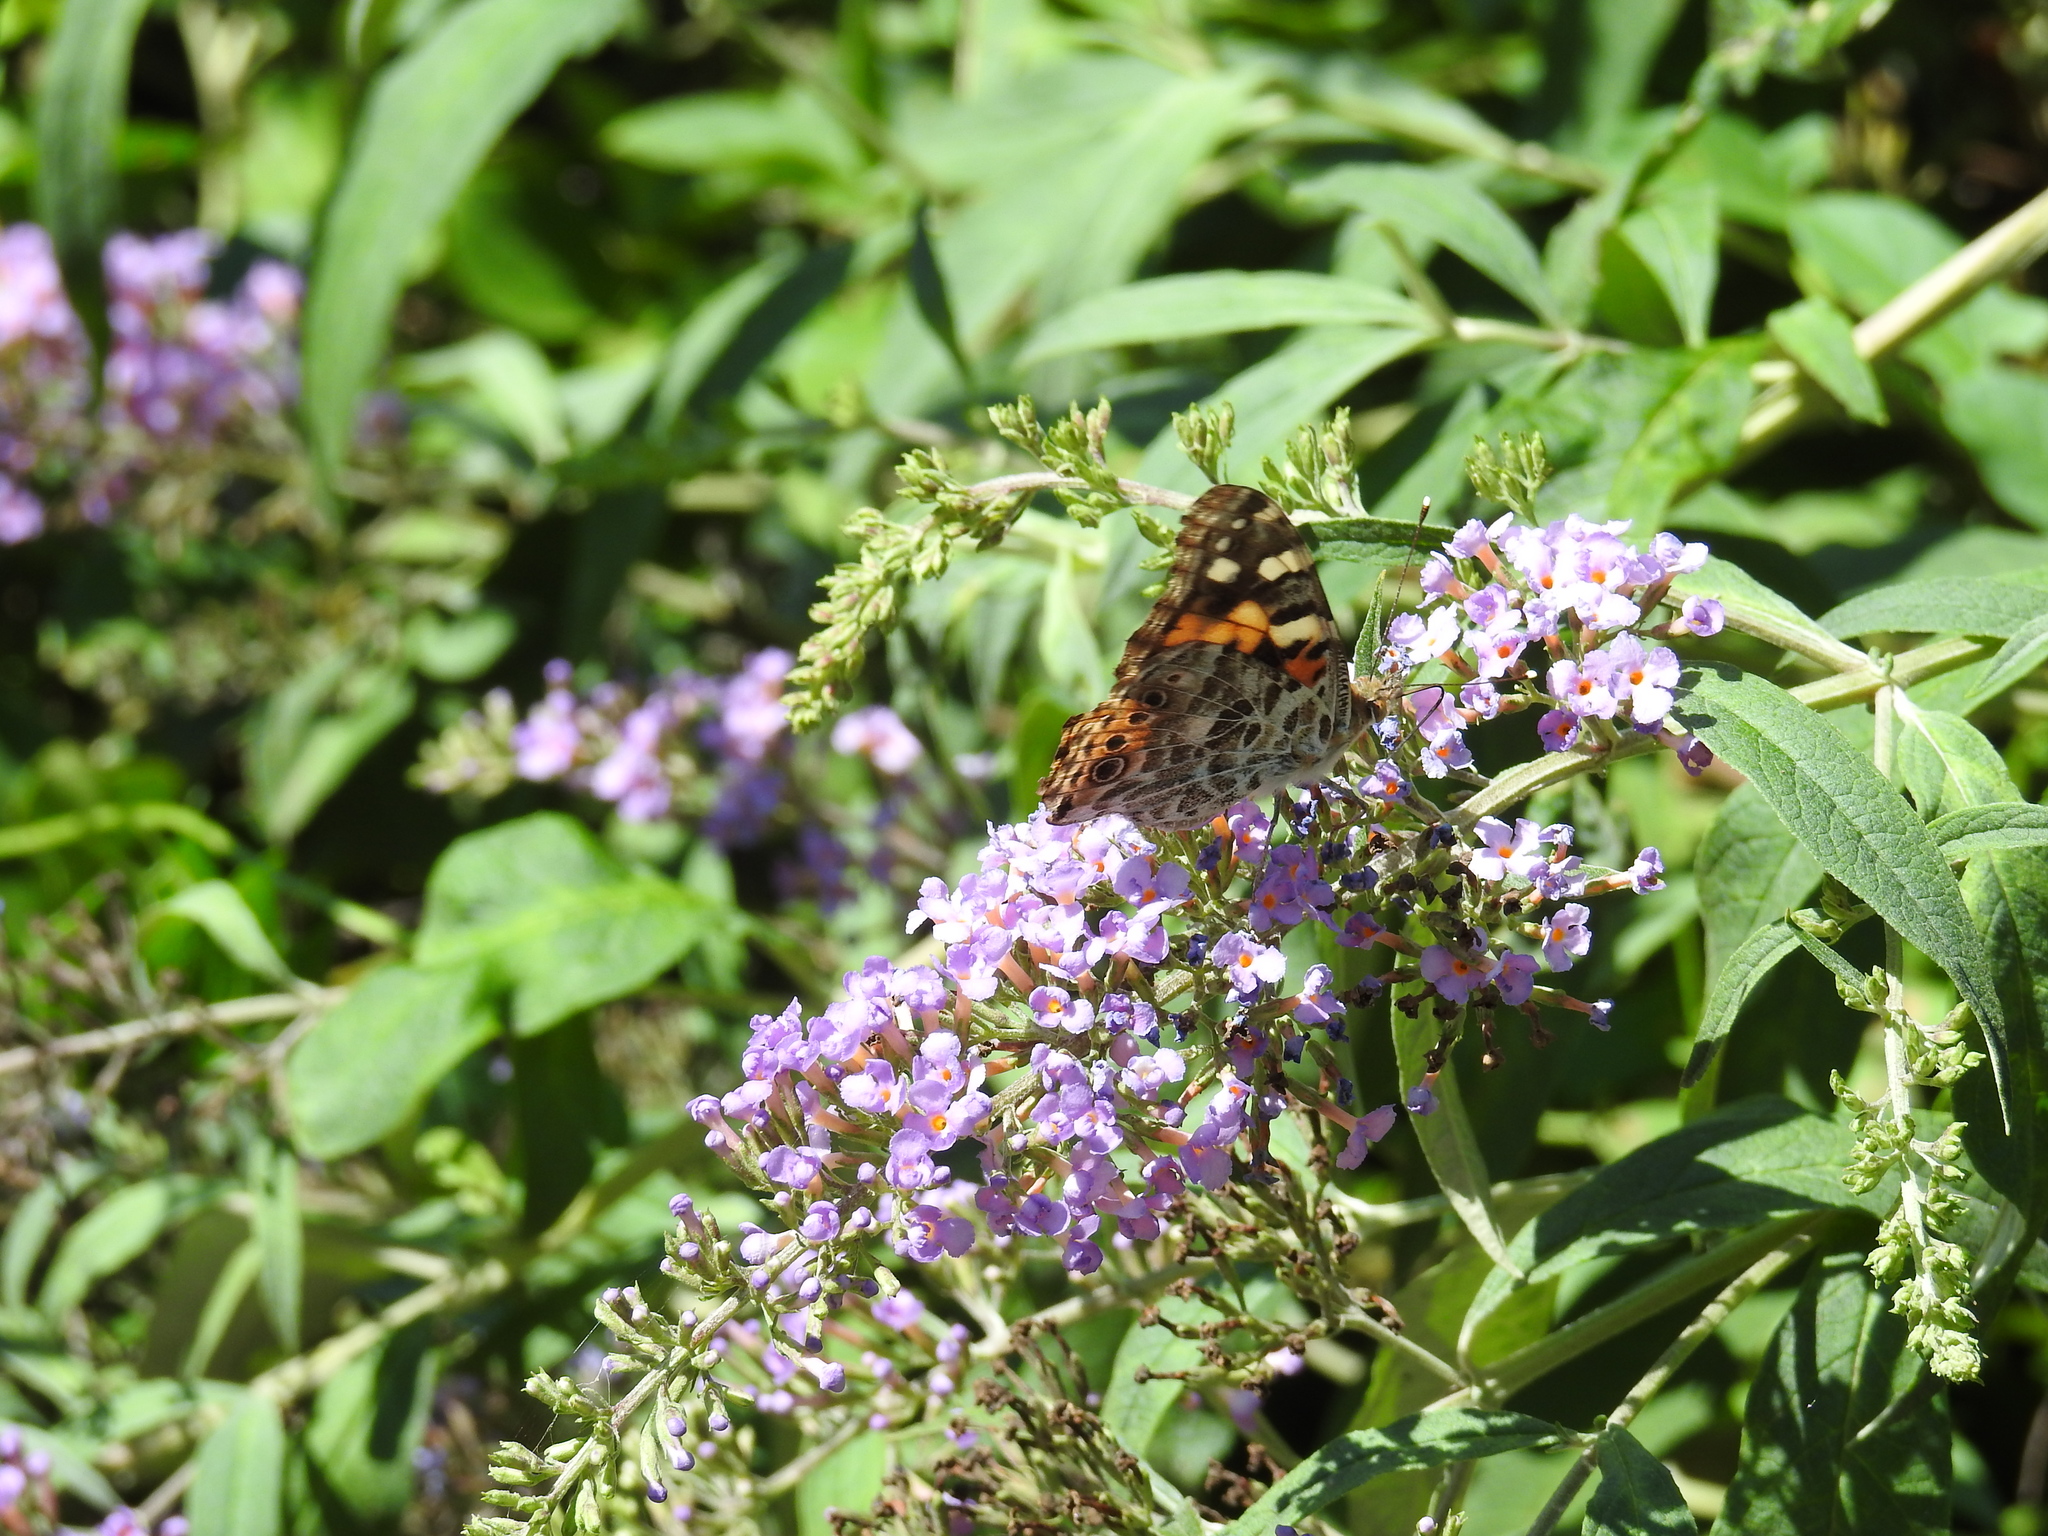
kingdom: Animalia
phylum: Arthropoda
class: Insecta
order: Lepidoptera
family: Nymphalidae
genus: Vanessa
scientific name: Vanessa cardui
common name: Painted lady
